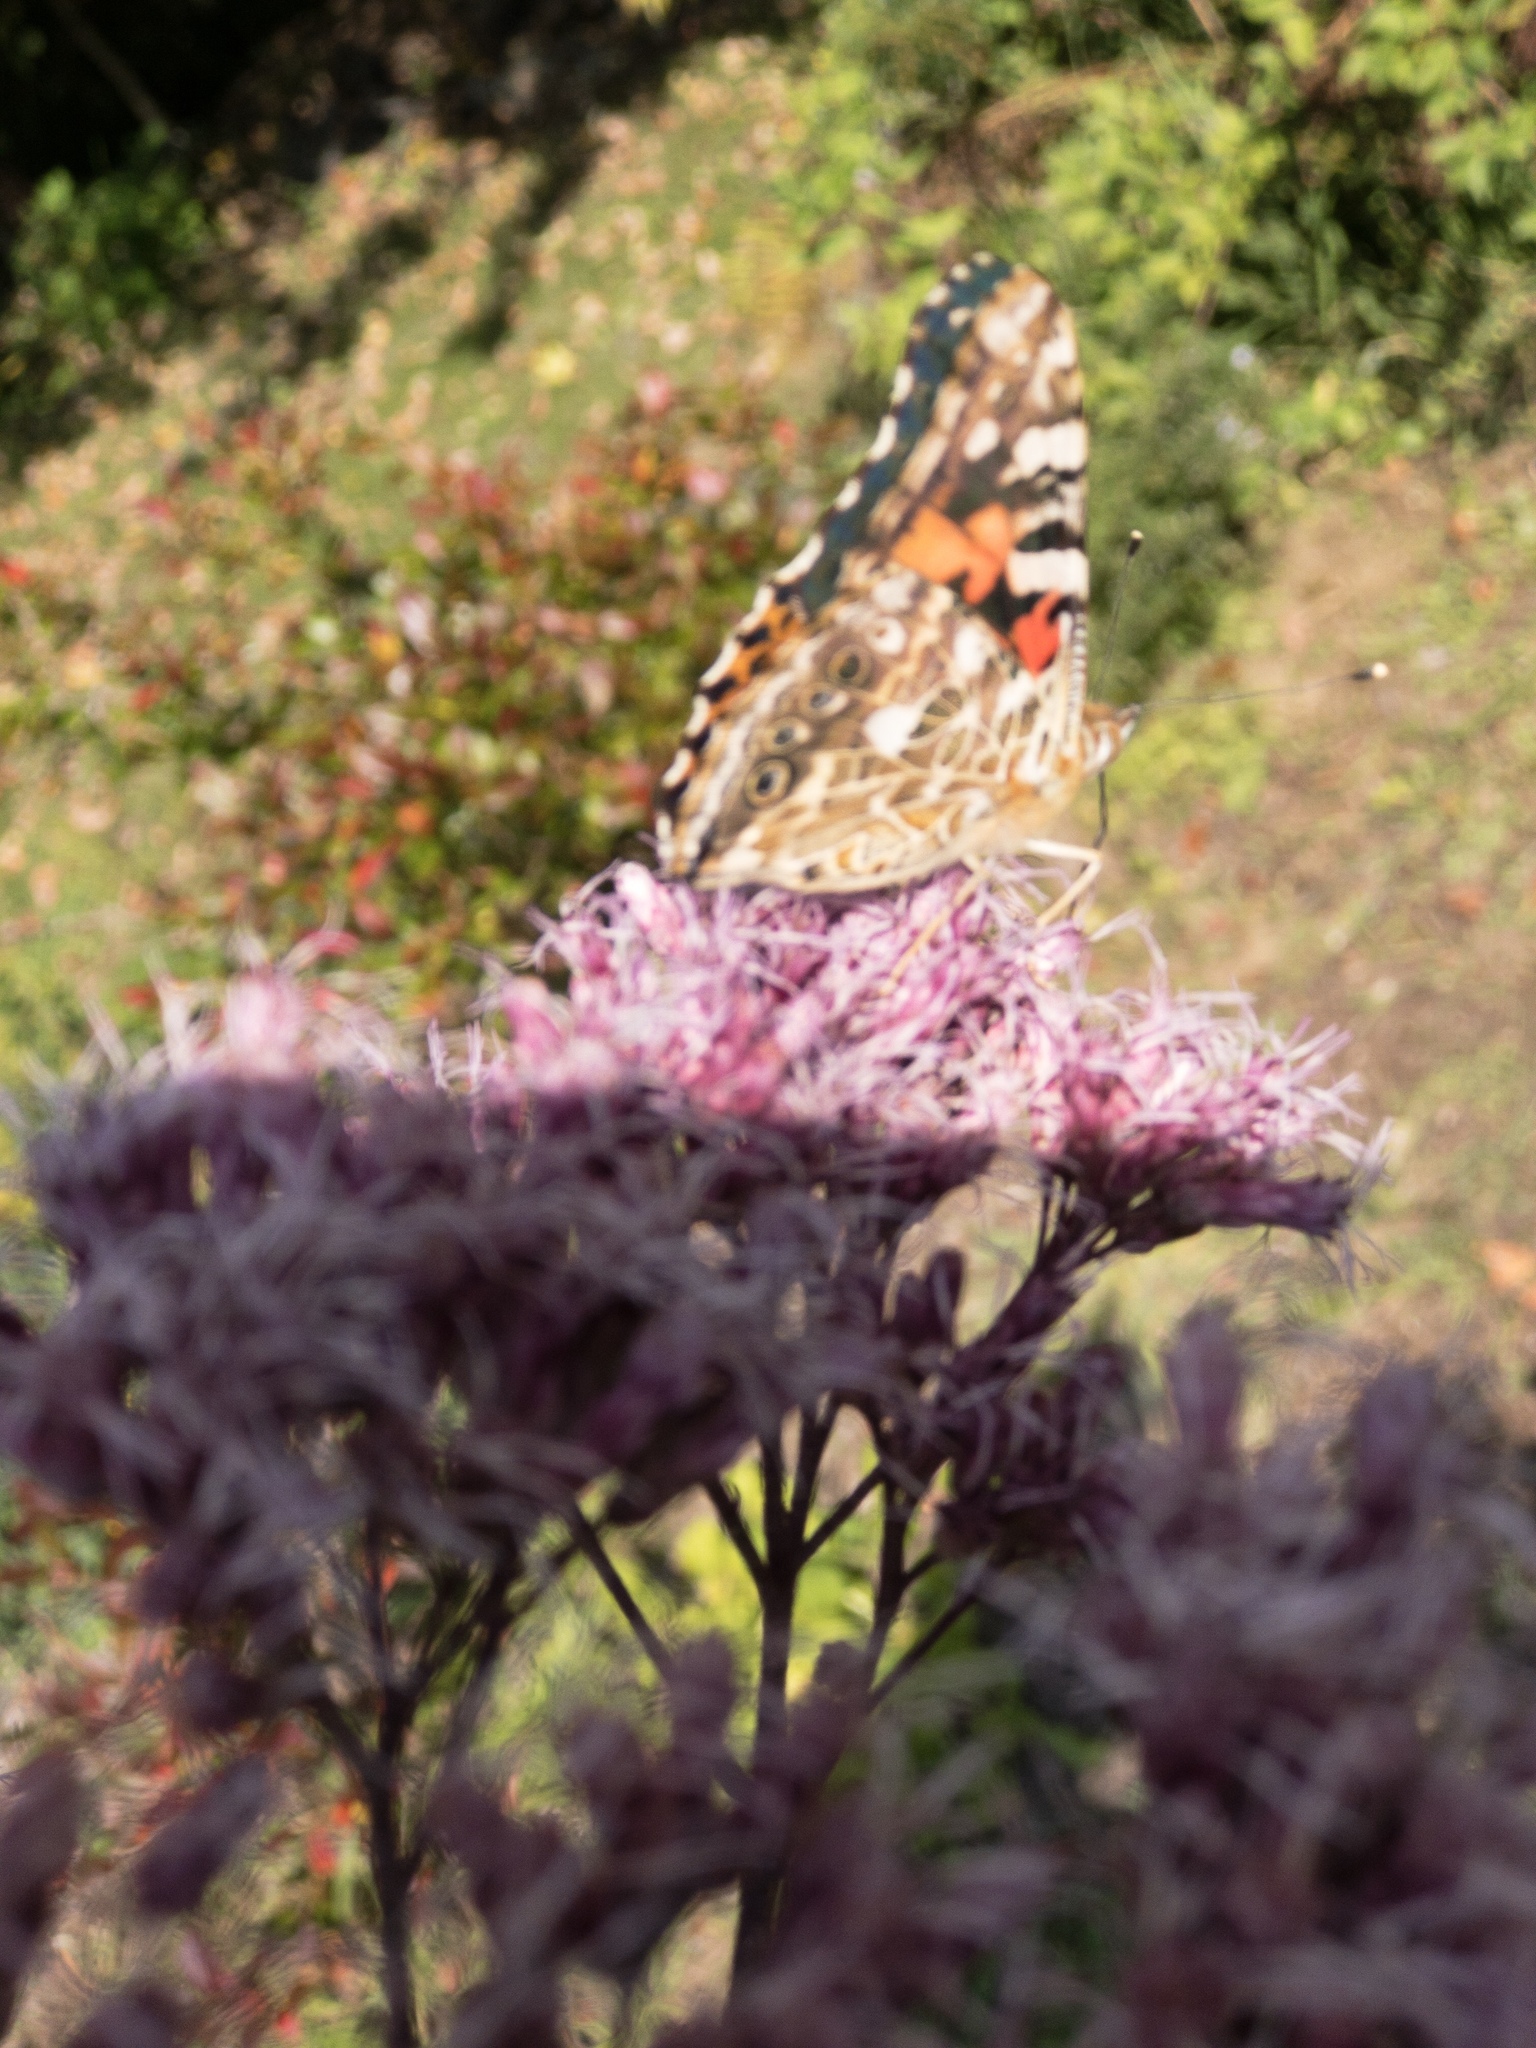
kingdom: Animalia
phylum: Arthropoda
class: Insecta
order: Lepidoptera
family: Nymphalidae
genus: Vanessa
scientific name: Vanessa cardui
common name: Painted lady
